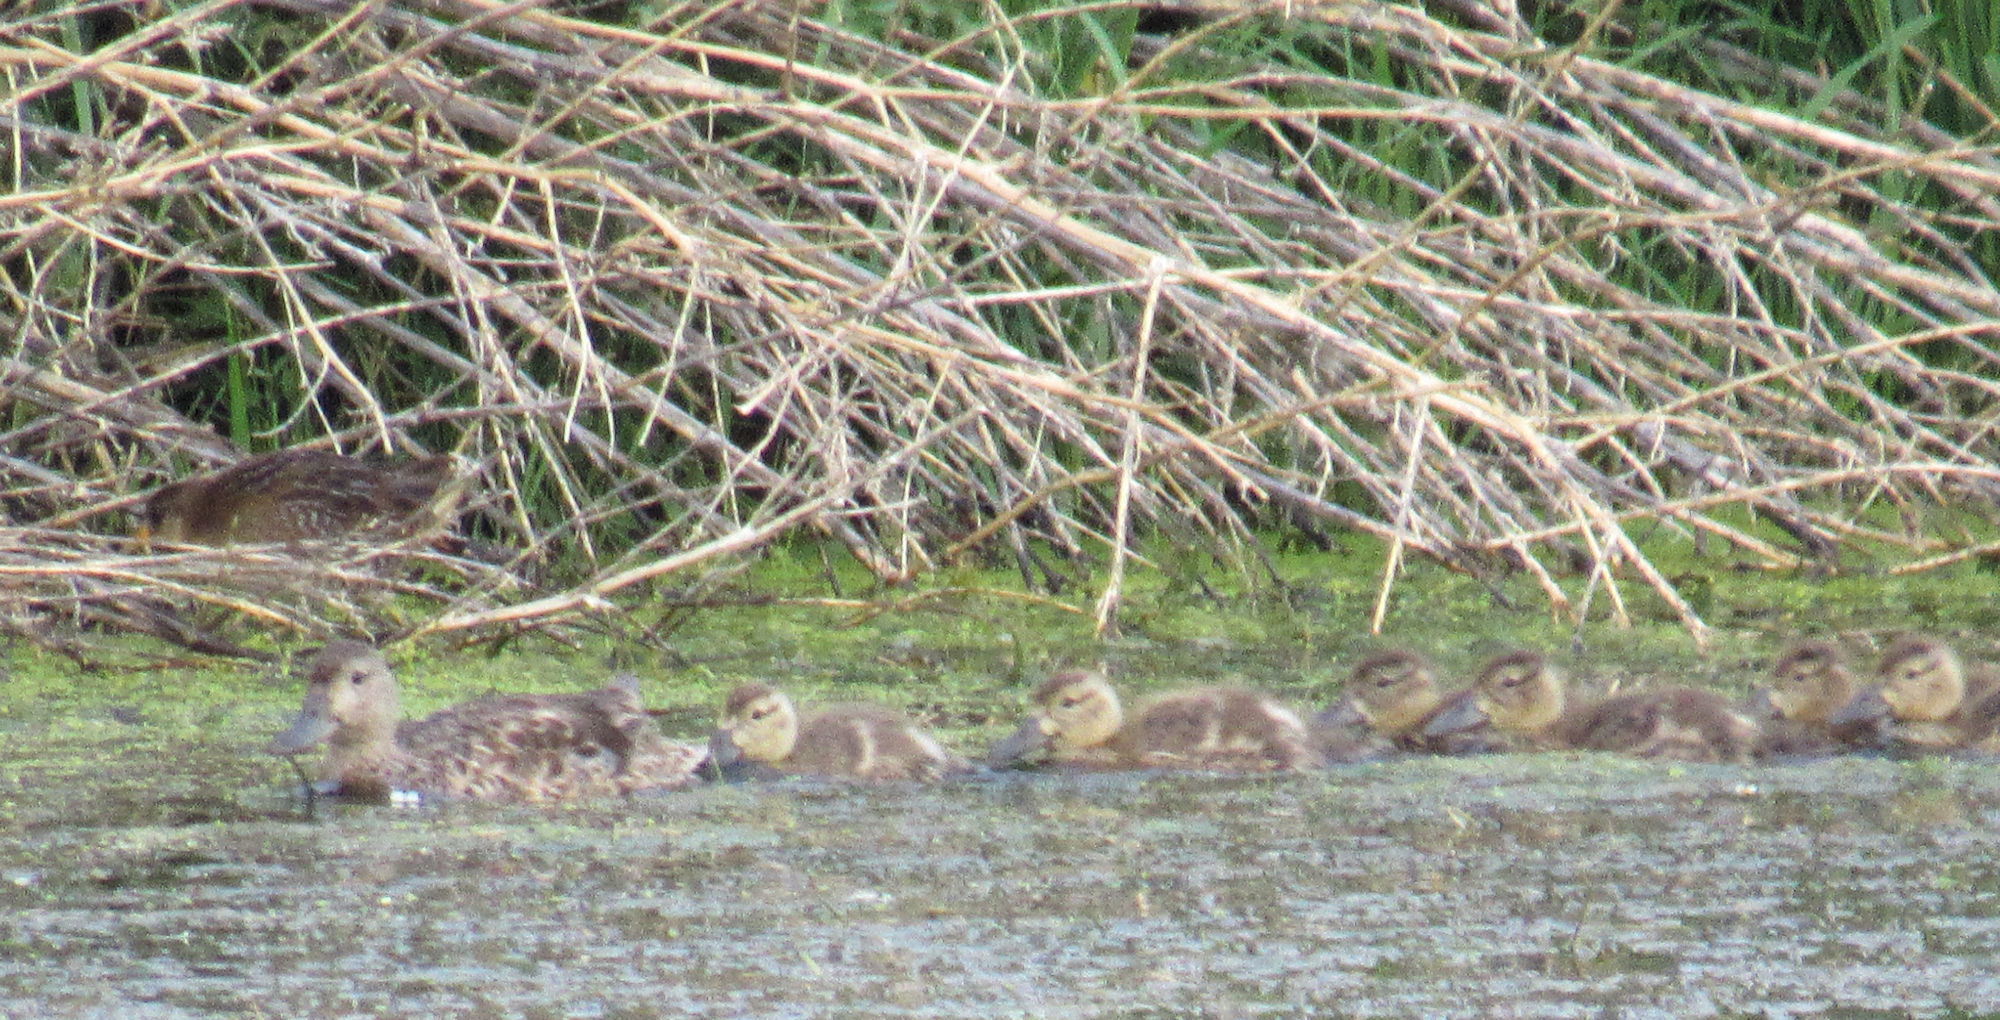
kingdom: Animalia
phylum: Chordata
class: Aves
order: Anseriformes
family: Anatidae
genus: Spatula
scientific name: Spatula cyanoptera
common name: Cinnamon teal
